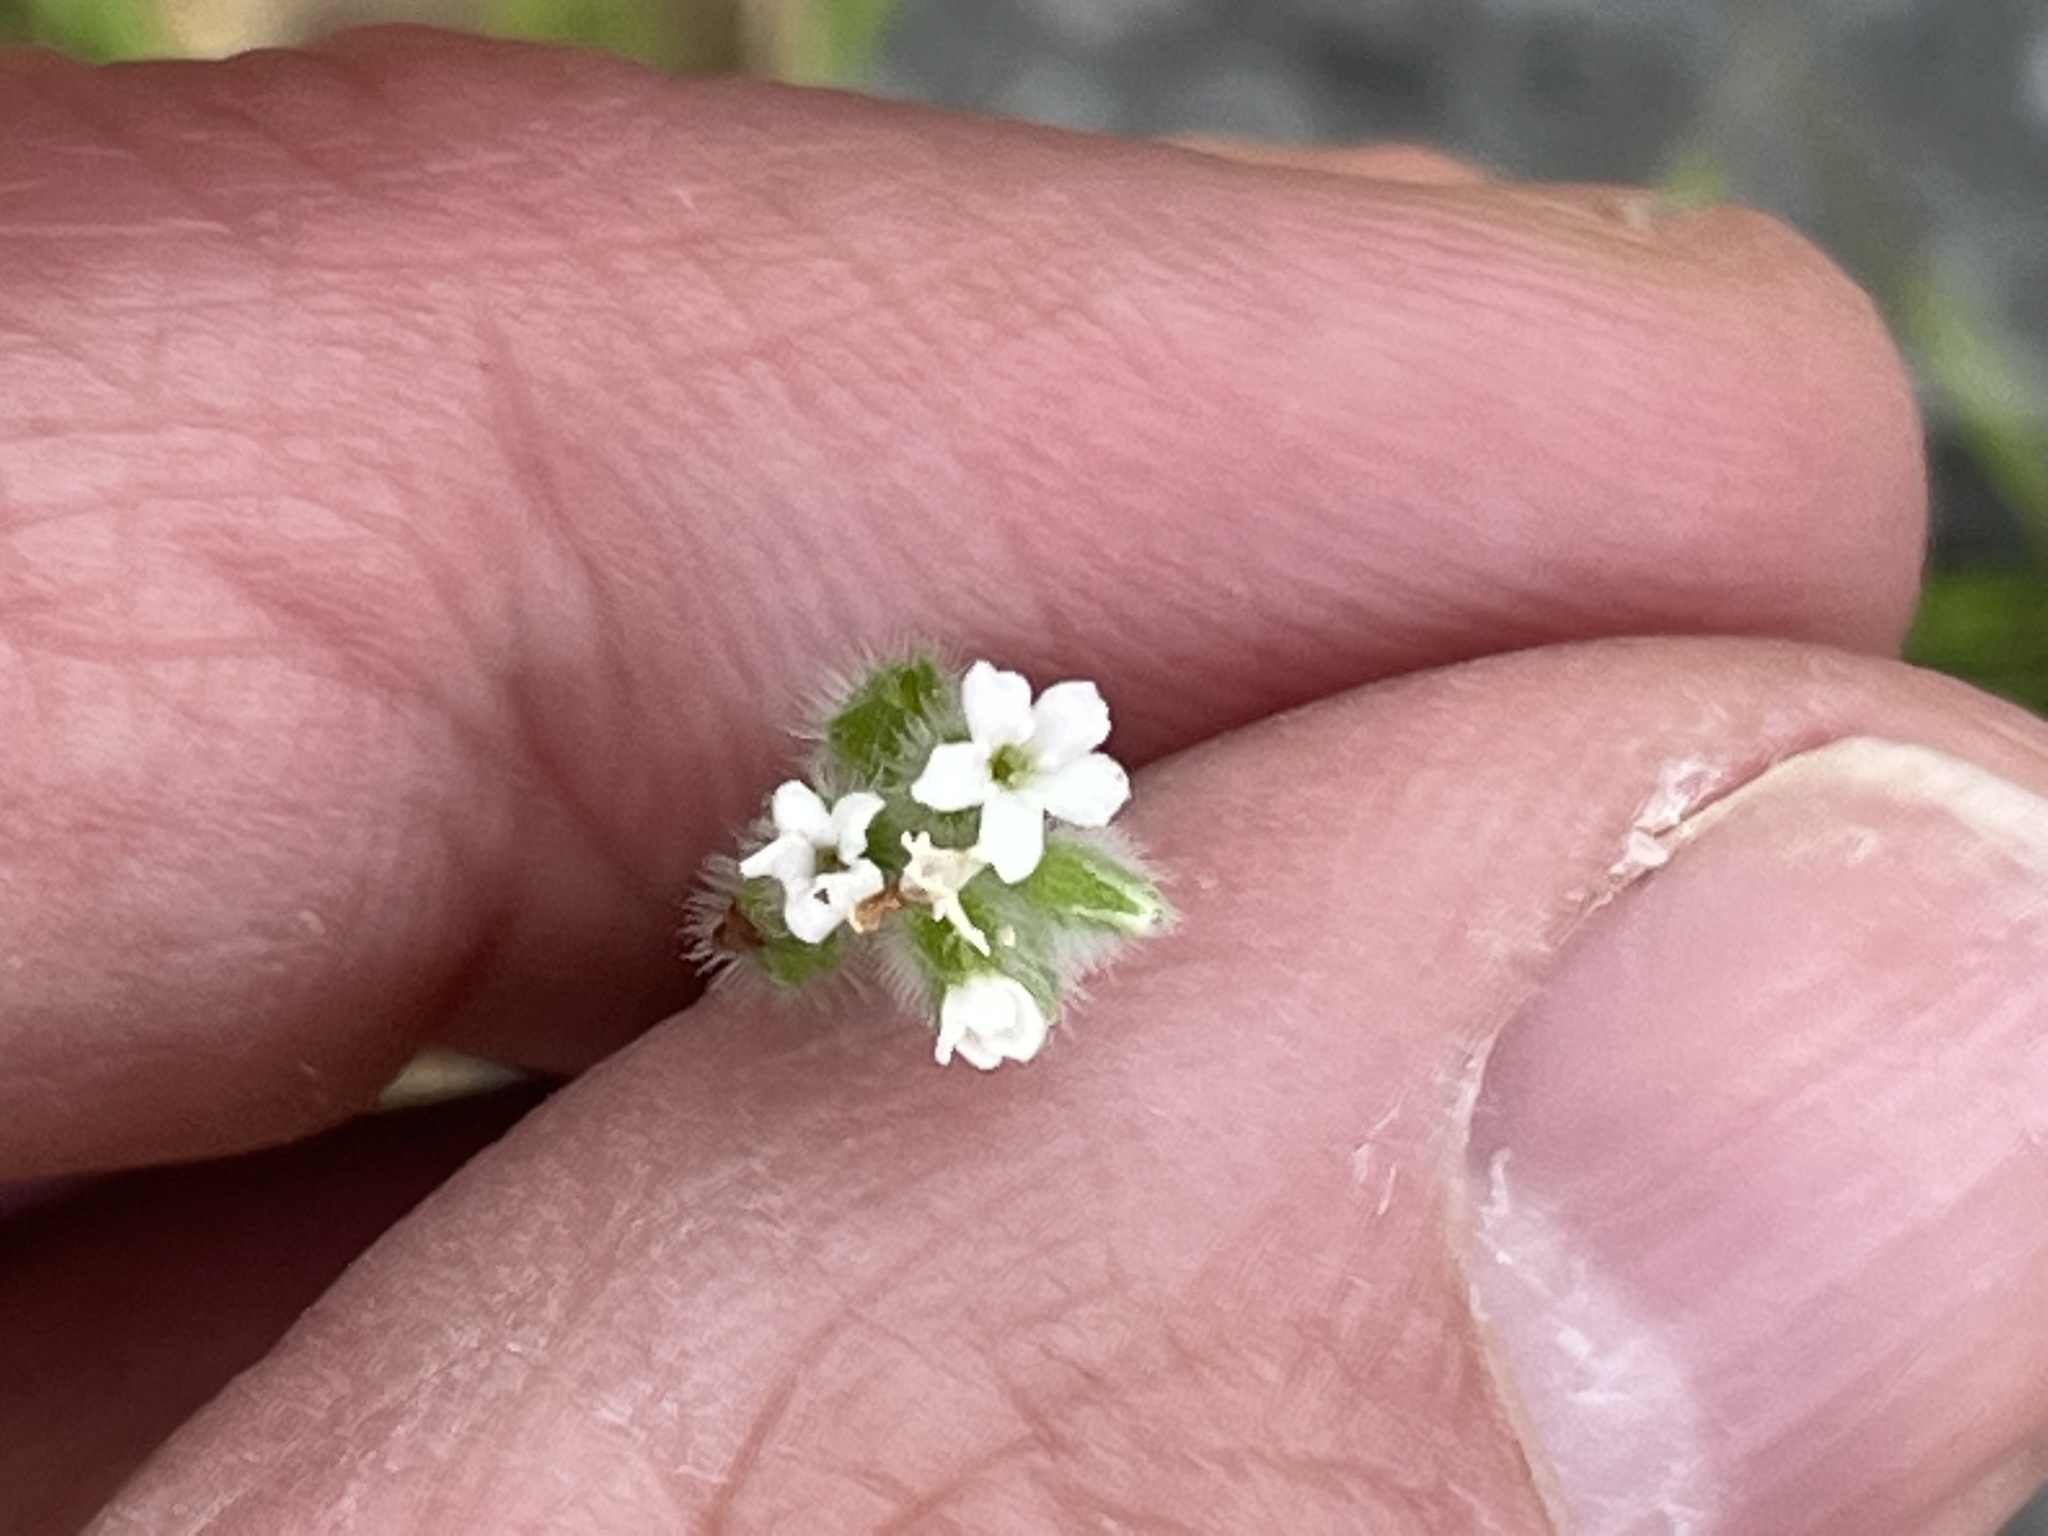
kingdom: Plantae
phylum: Tracheophyta
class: Magnoliopsida
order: Boraginales
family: Boraginaceae
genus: Myosotis
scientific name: Myosotis macrosperma
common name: Large-seed forget-me-not
